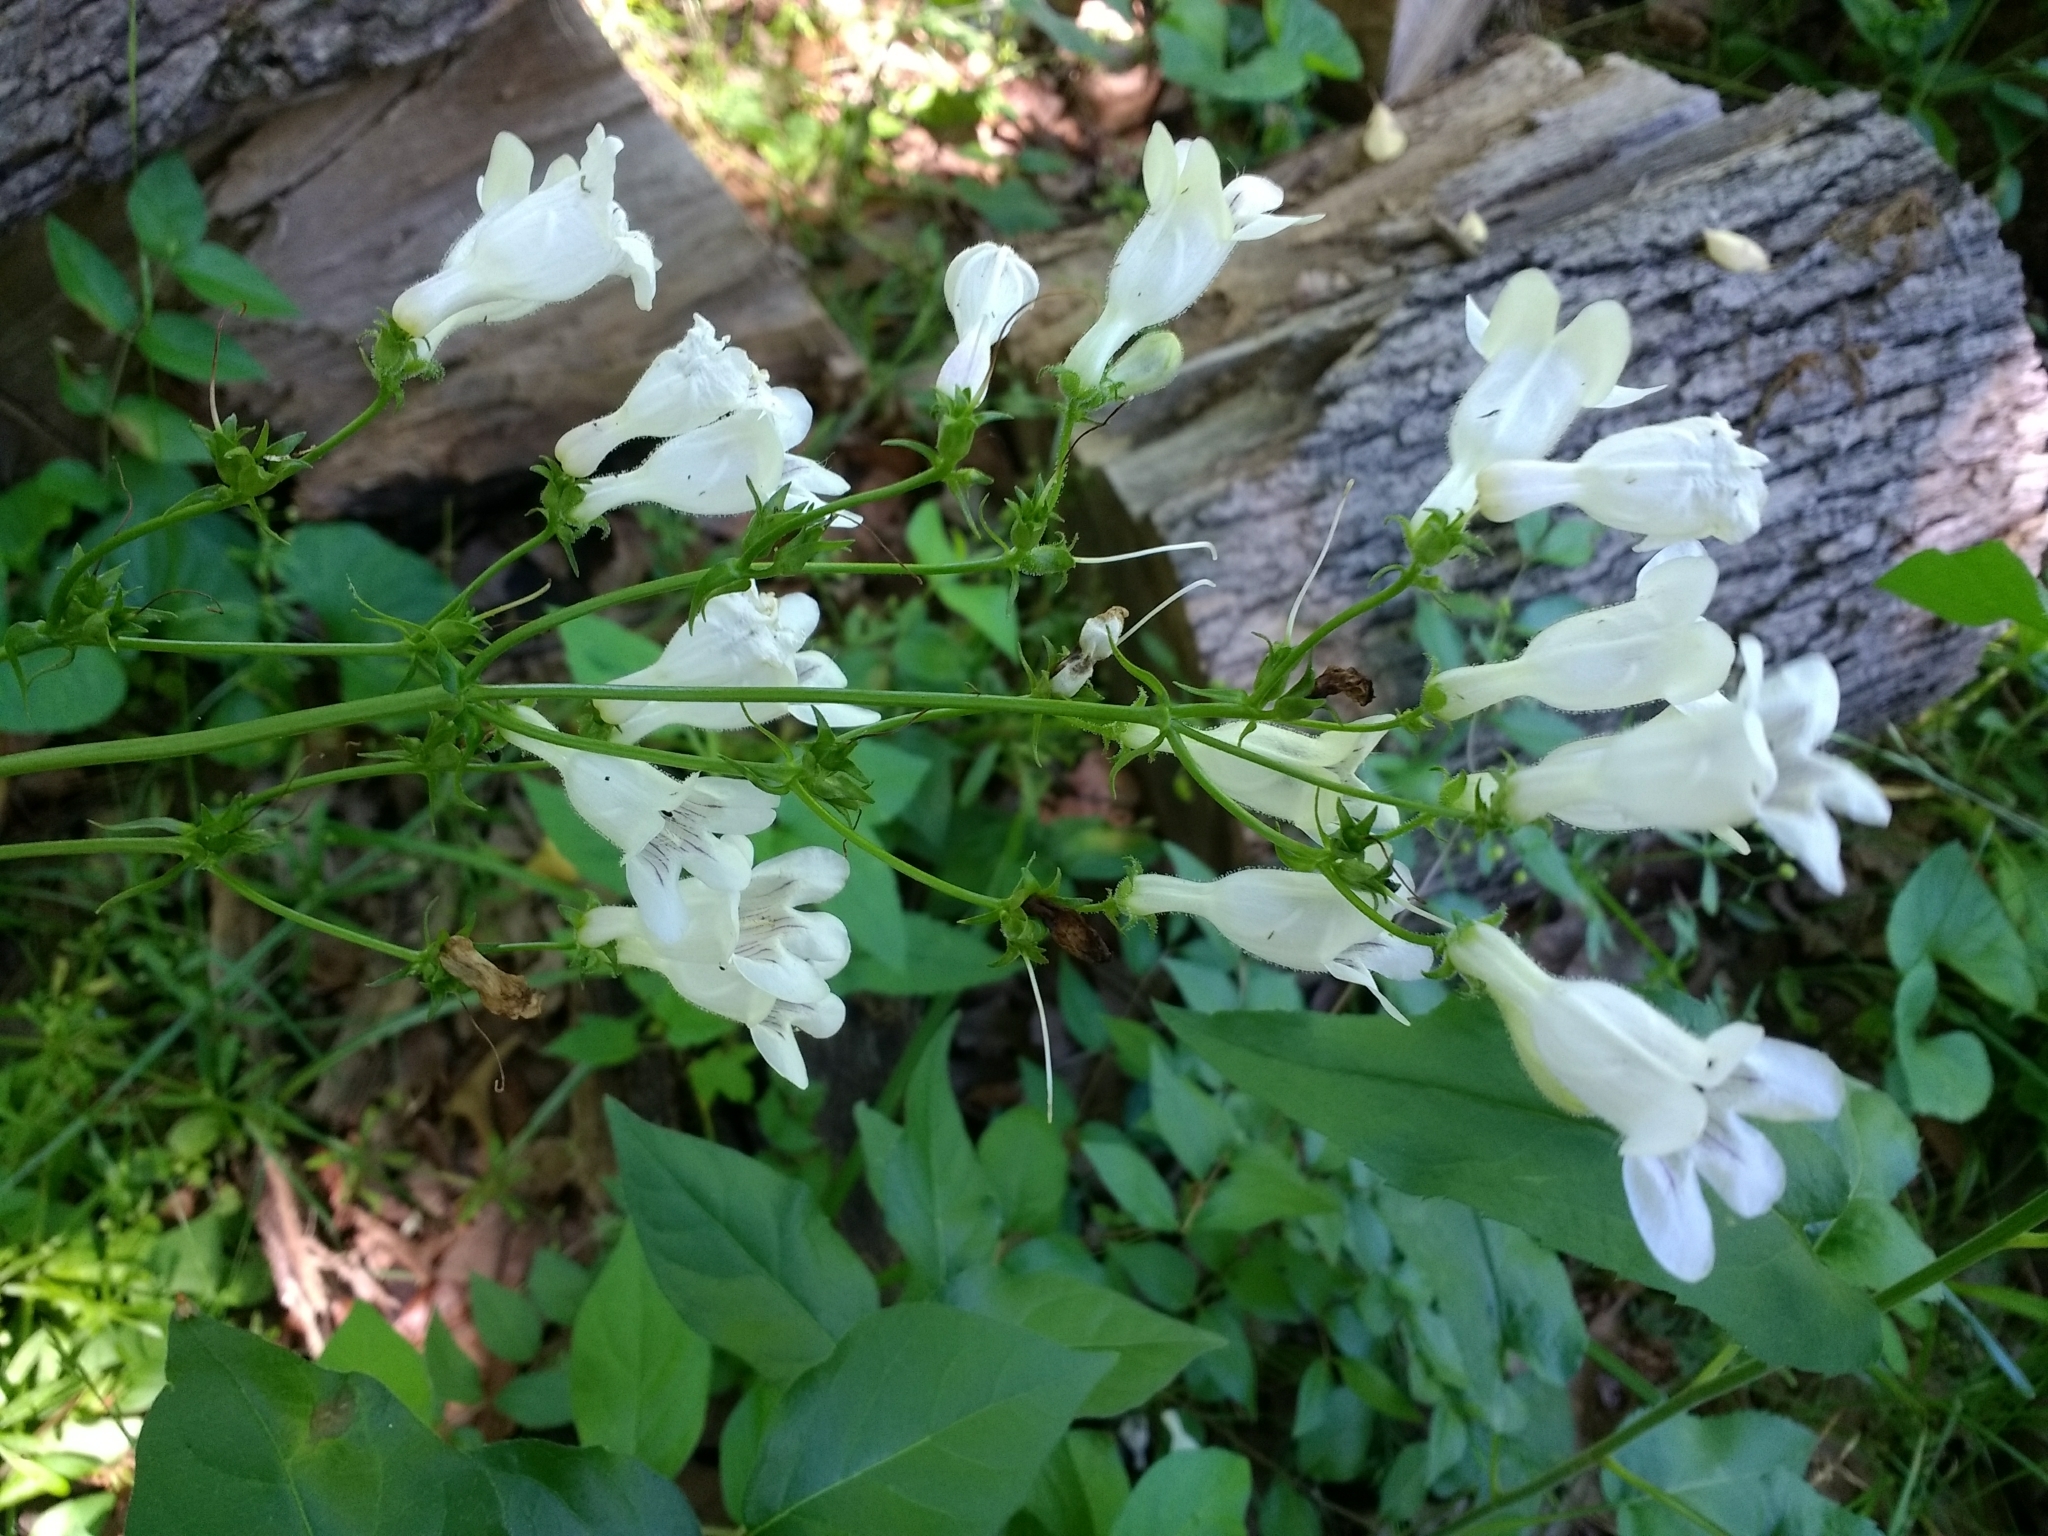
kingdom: Plantae
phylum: Tracheophyta
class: Magnoliopsida
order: Lamiales
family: Plantaginaceae
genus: Penstemon
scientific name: Penstemon digitalis
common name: Foxglove beardtongue
